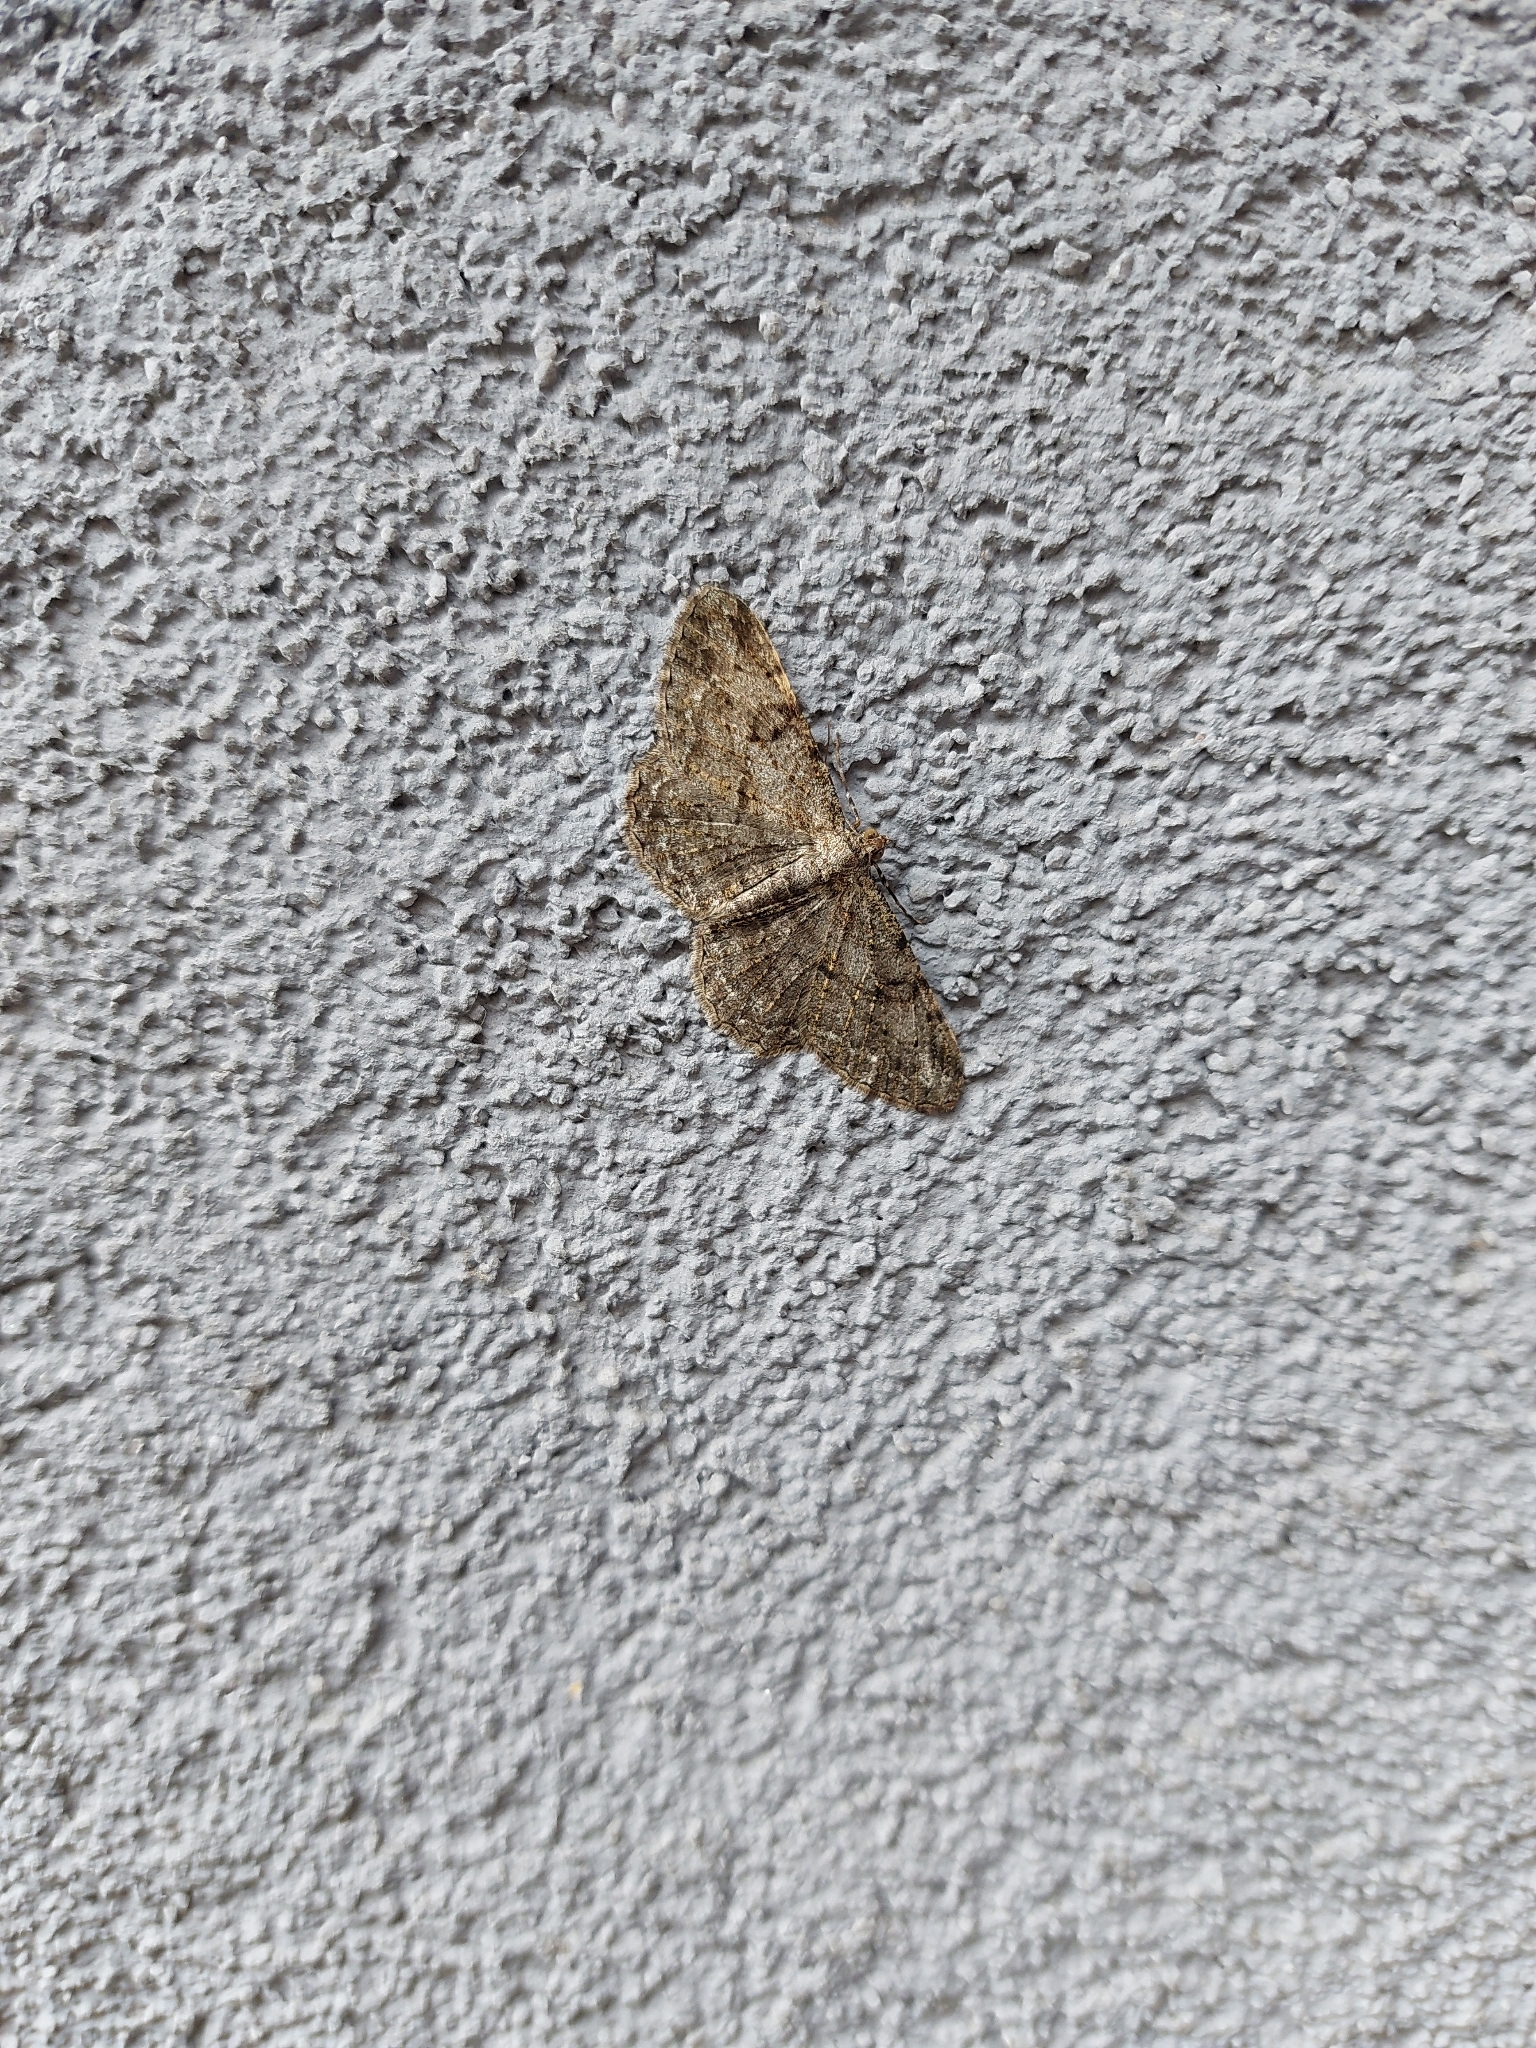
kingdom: Animalia
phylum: Arthropoda
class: Insecta
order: Lepidoptera
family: Geometridae
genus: Peribatodes
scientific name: Peribatodes rhomboidaria
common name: Willow beauty
